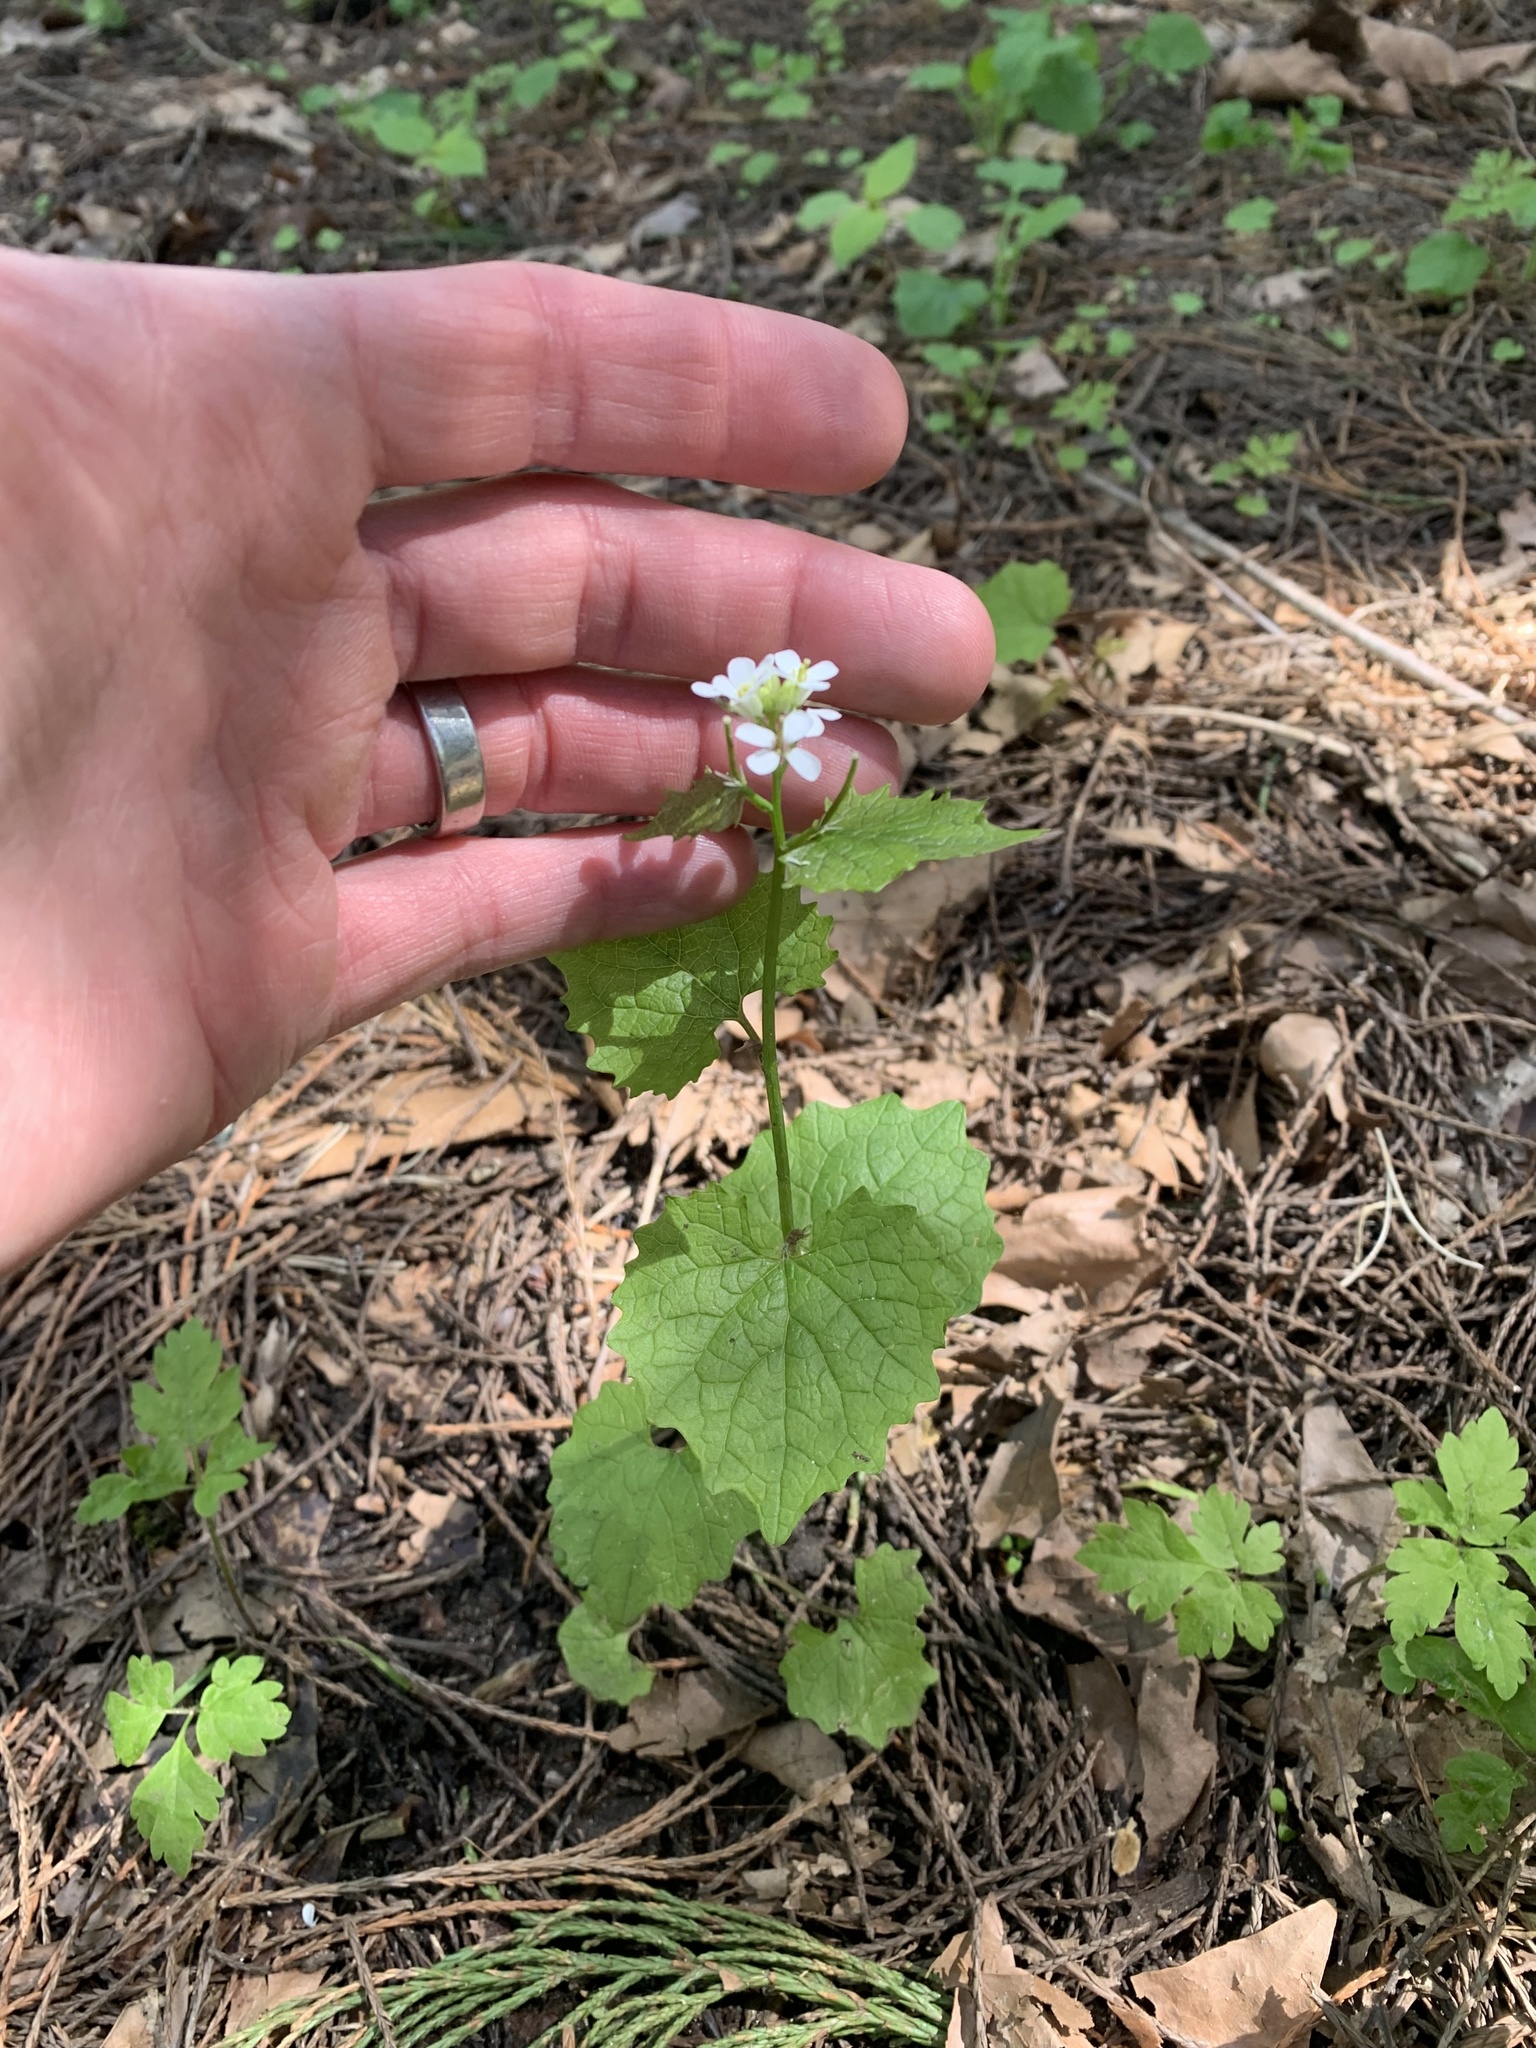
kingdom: Plantae
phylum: Tracheophyta
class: Magnoliopsida
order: Brassicales
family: Brassicaceae
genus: Alliaria
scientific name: Alliaria petiolata
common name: Garlic mustard
